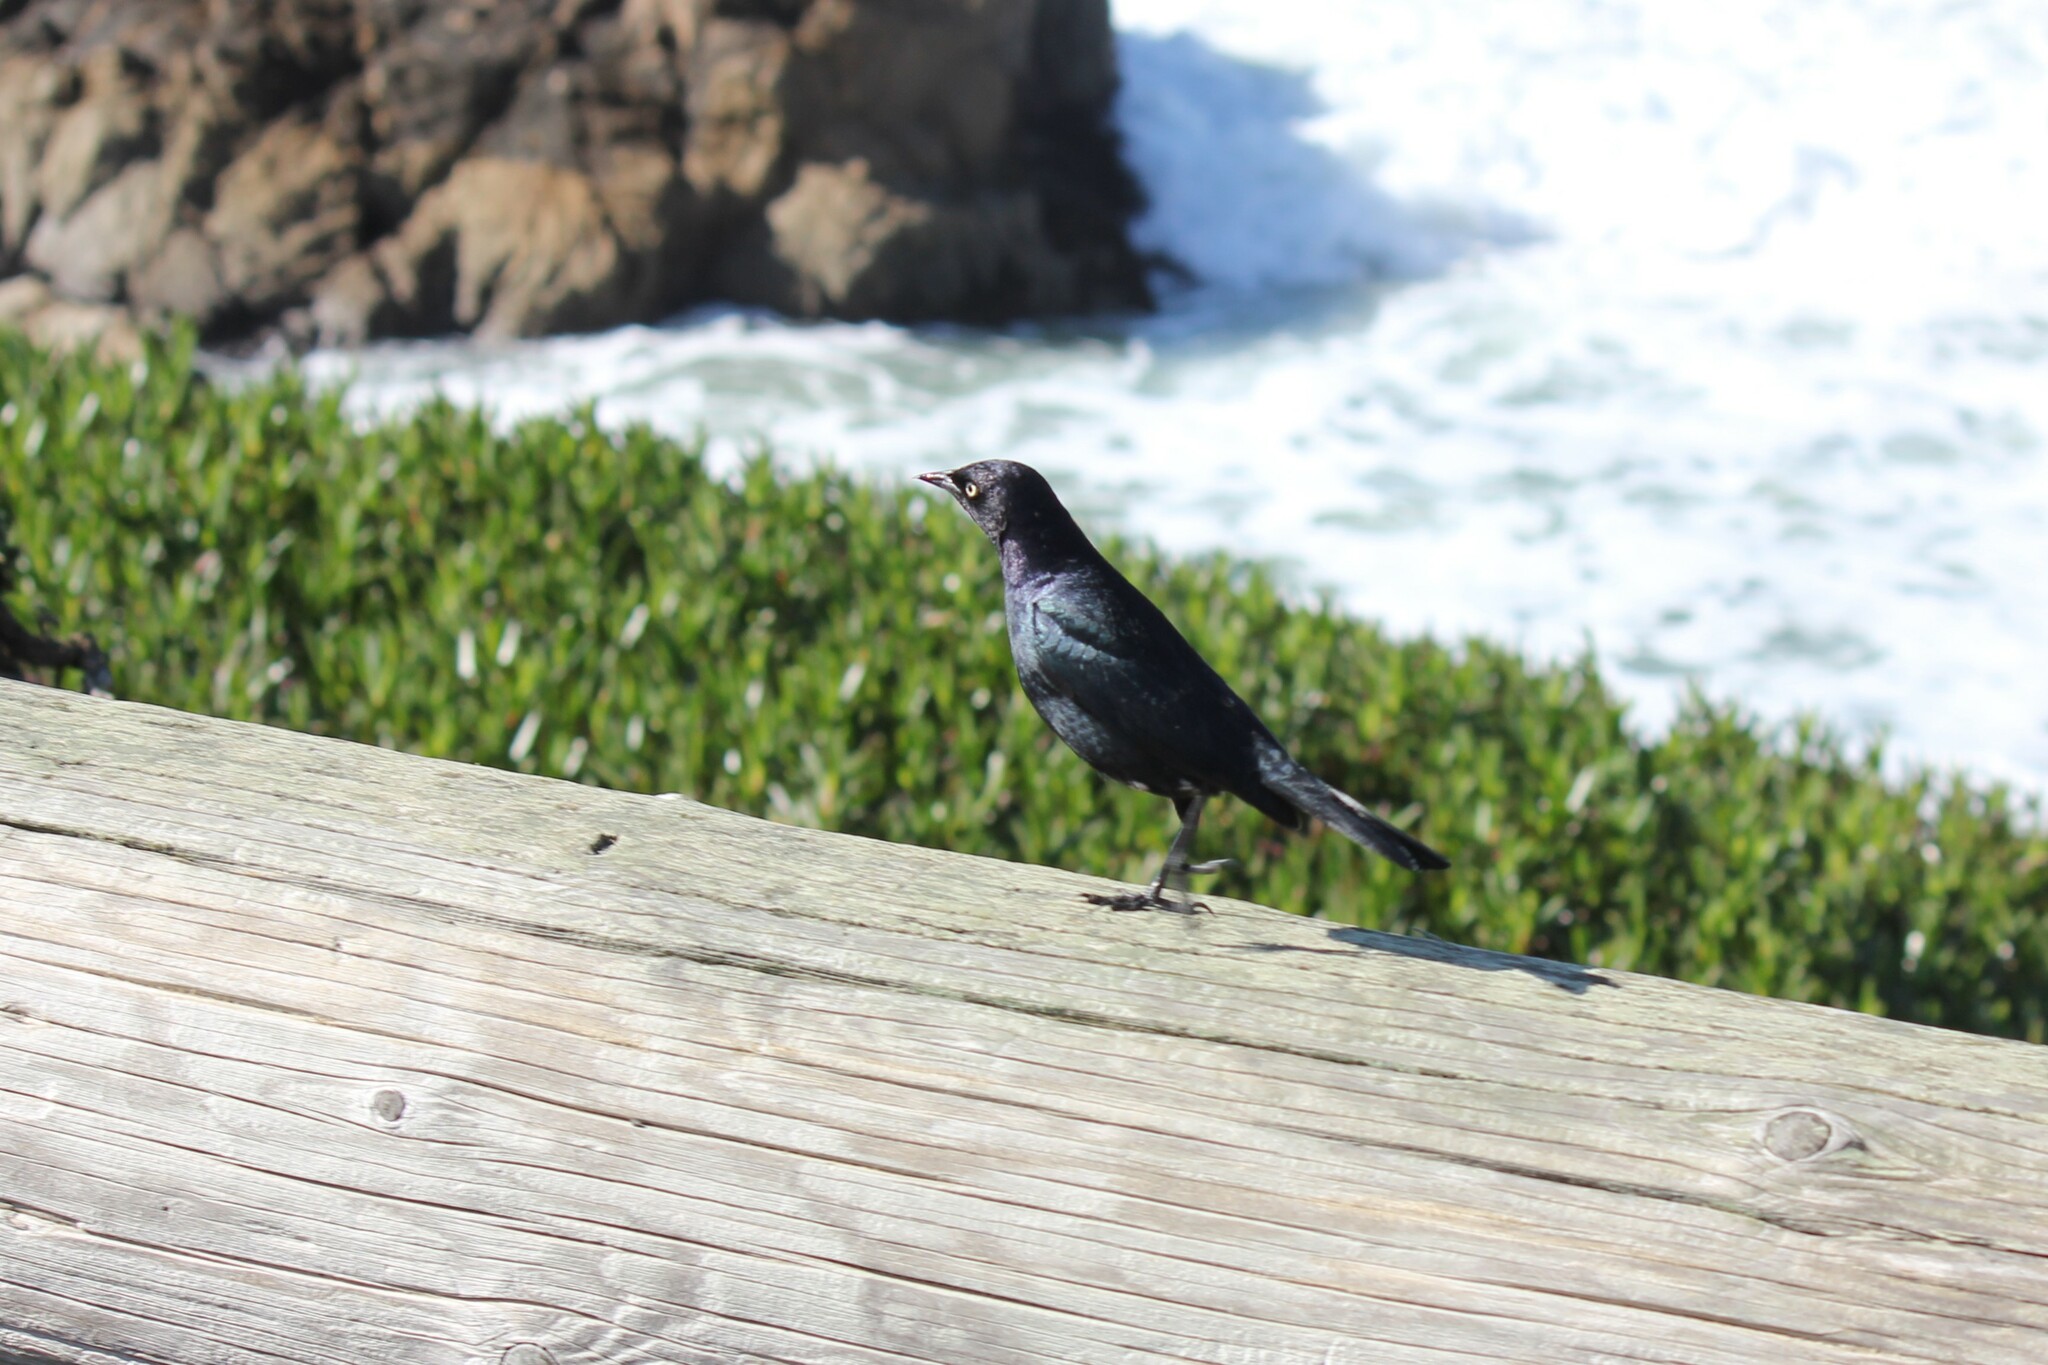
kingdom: Animalia
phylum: Chordata
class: Aves
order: Passeriformes
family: Icteridae
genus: Euphagus
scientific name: Euphagus cyanocephalus
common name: Brewer's blackbird
